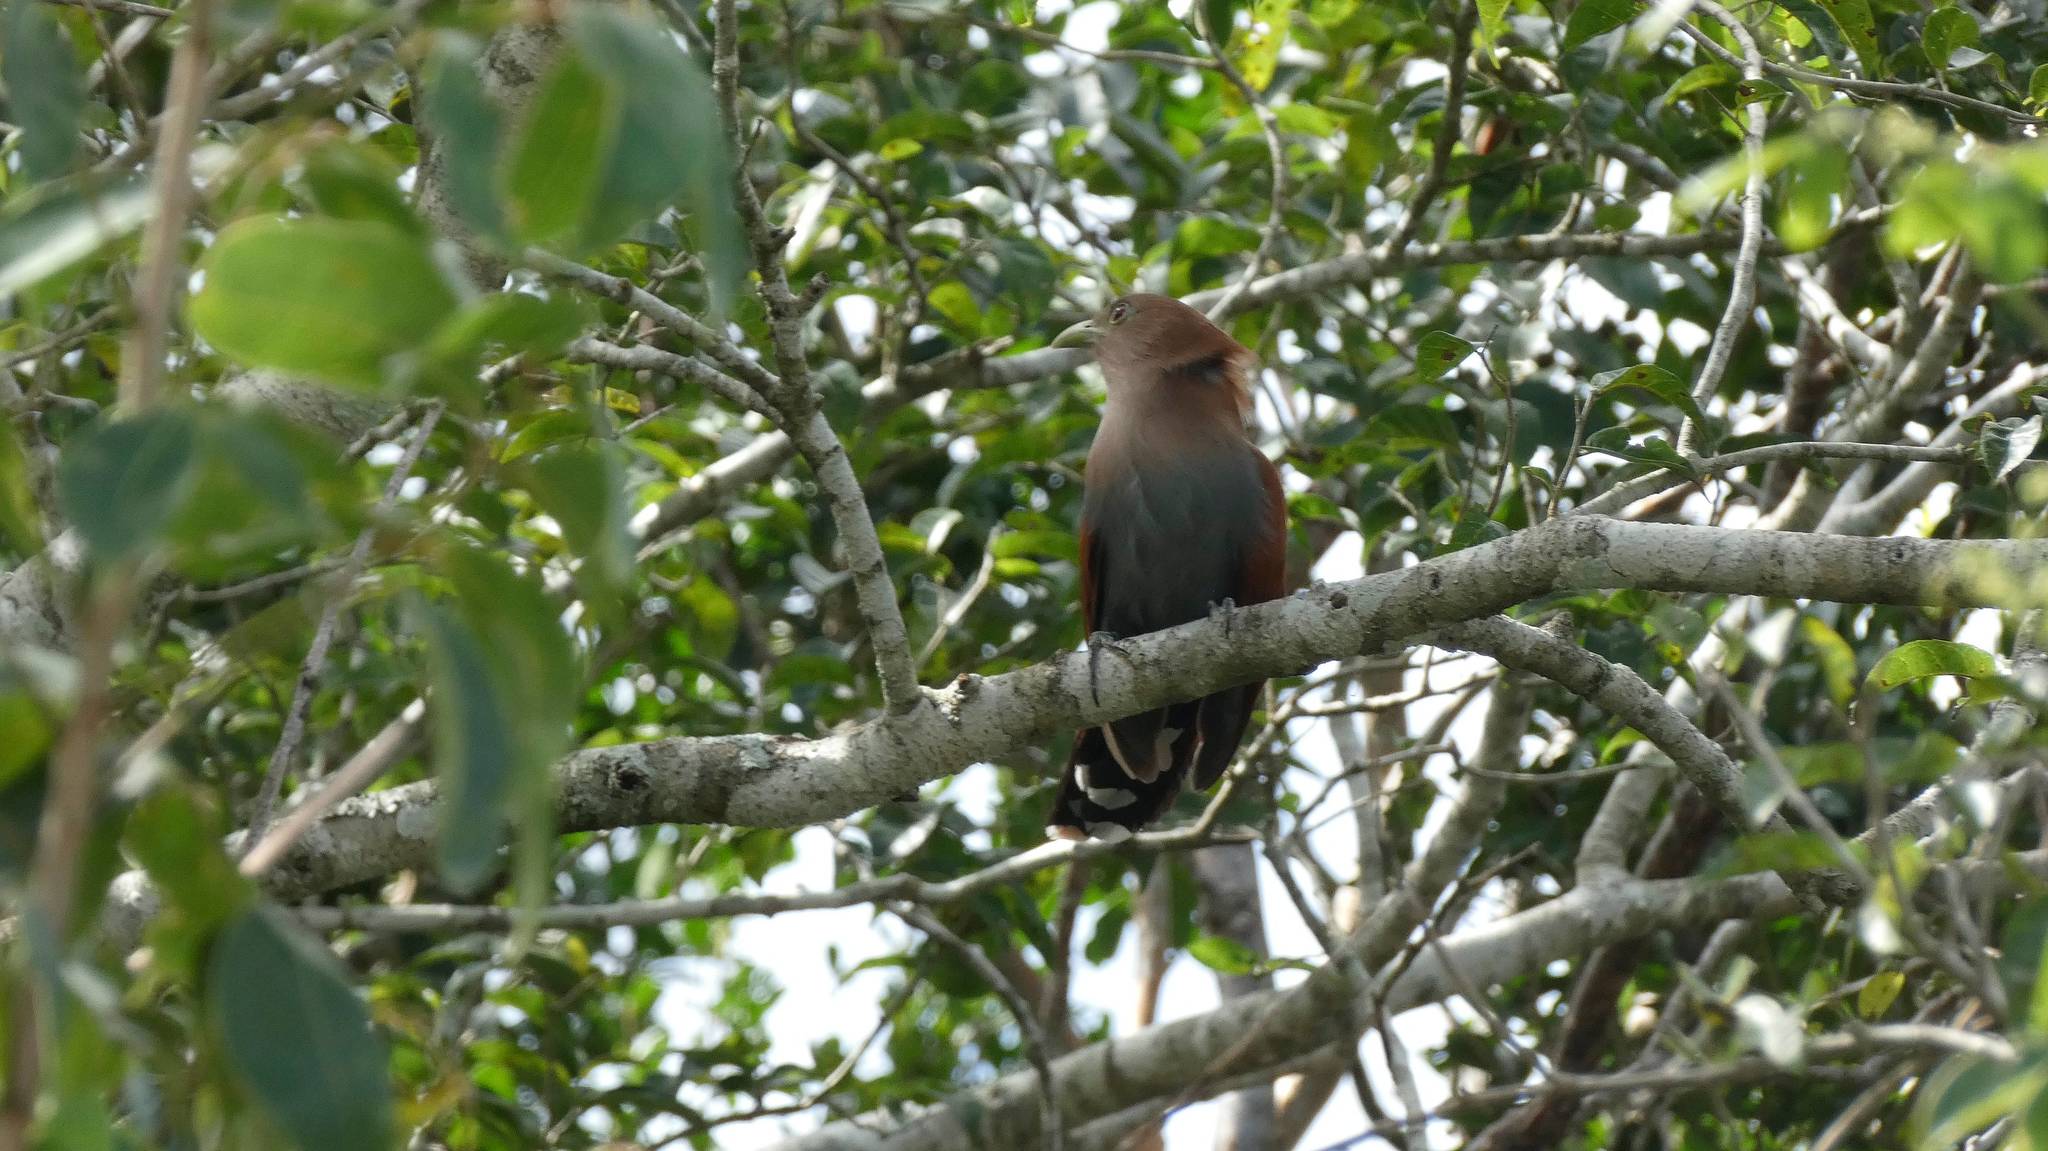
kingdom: Animalia
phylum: Chordata
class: Aves
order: Cuculiformes
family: Cuculidae
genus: Piaya
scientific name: Piaya cayana
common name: Squirrel cuckoo
